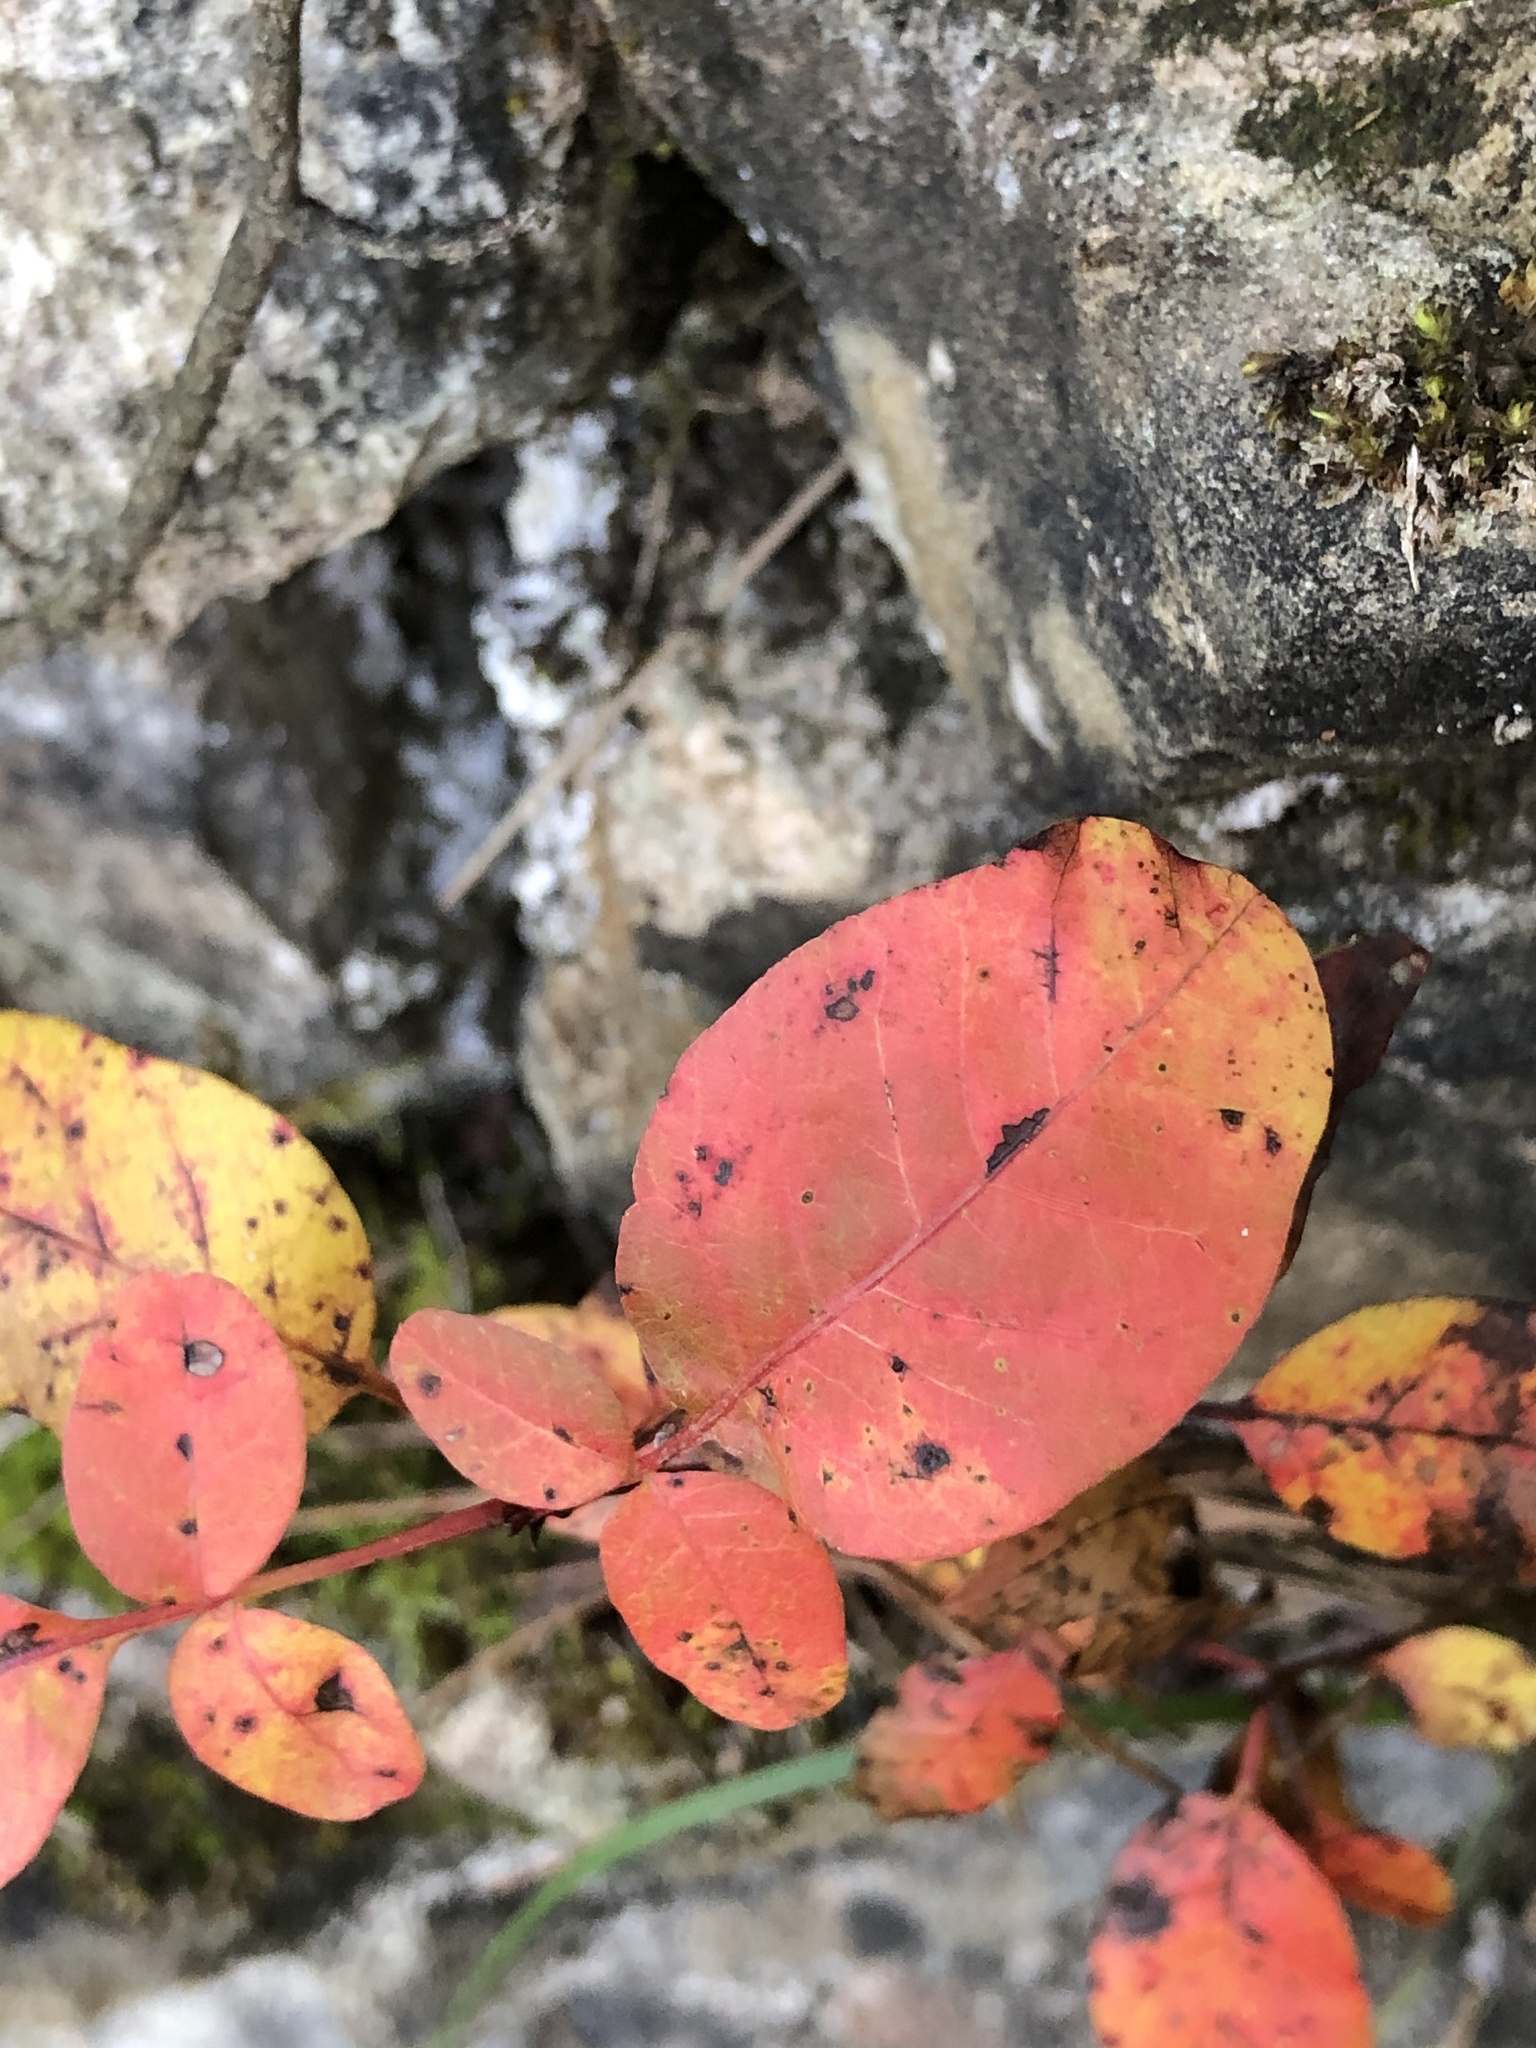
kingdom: Plantae
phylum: Tracheophyta
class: Magnoliopsida
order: Sapindales
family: Anacardiaceae
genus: Pistacia
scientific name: Pistacia terebinthus
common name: Terebinth
